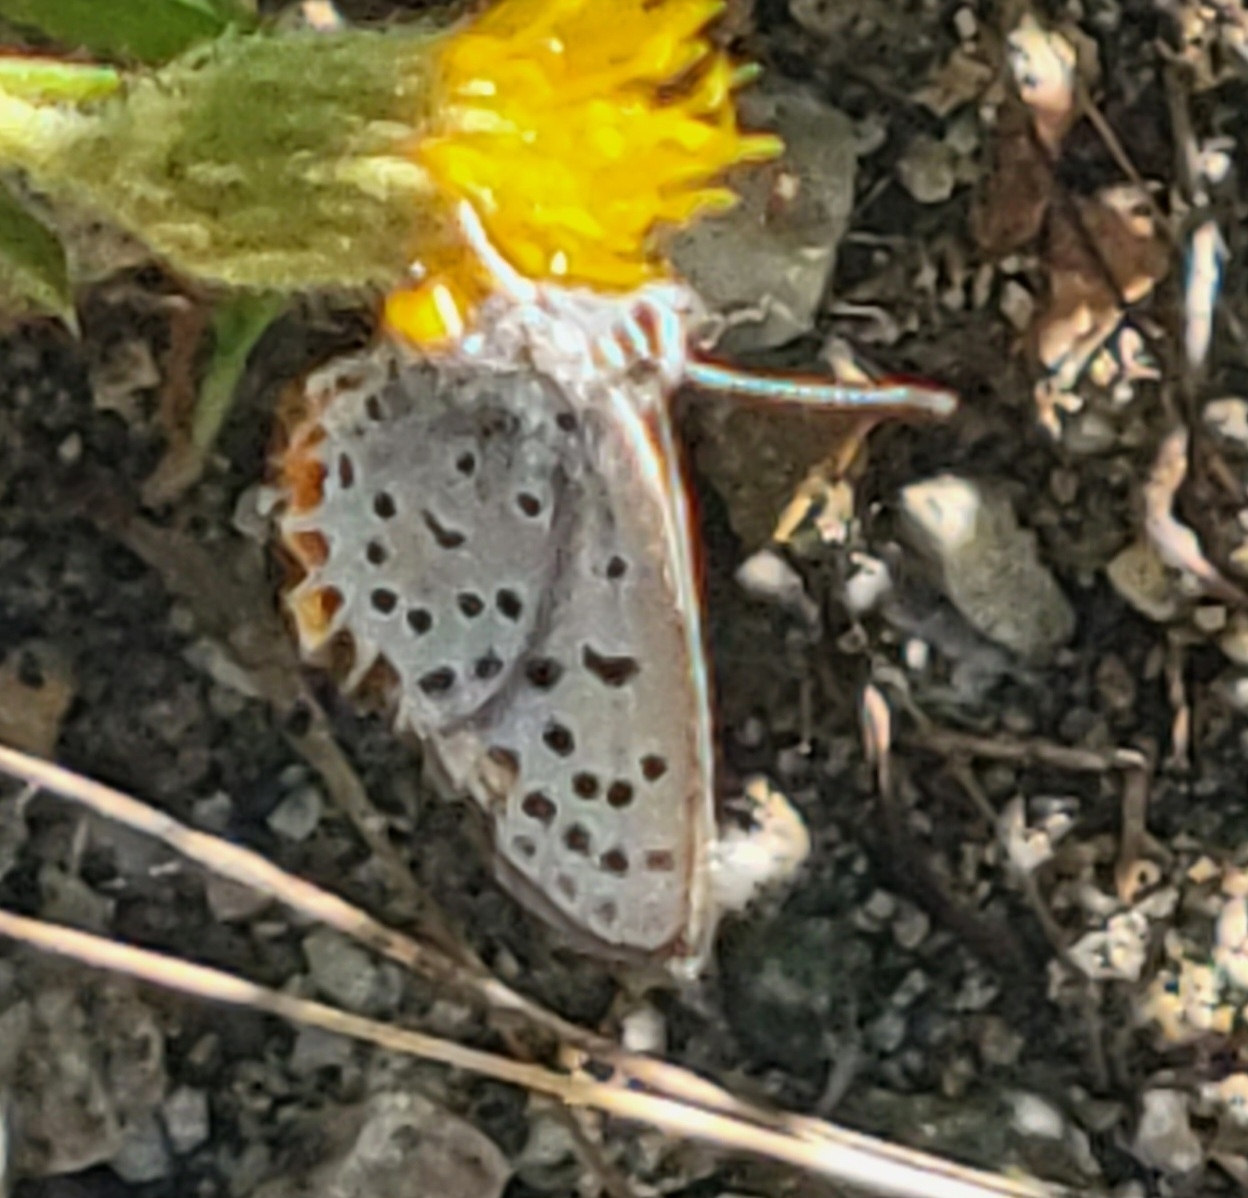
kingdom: Animalia
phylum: Arthropoda
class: Insecta
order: Lepidoptera
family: Lycaenidae
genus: Icaricia
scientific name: Icaricia acmon
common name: Acmon blue
